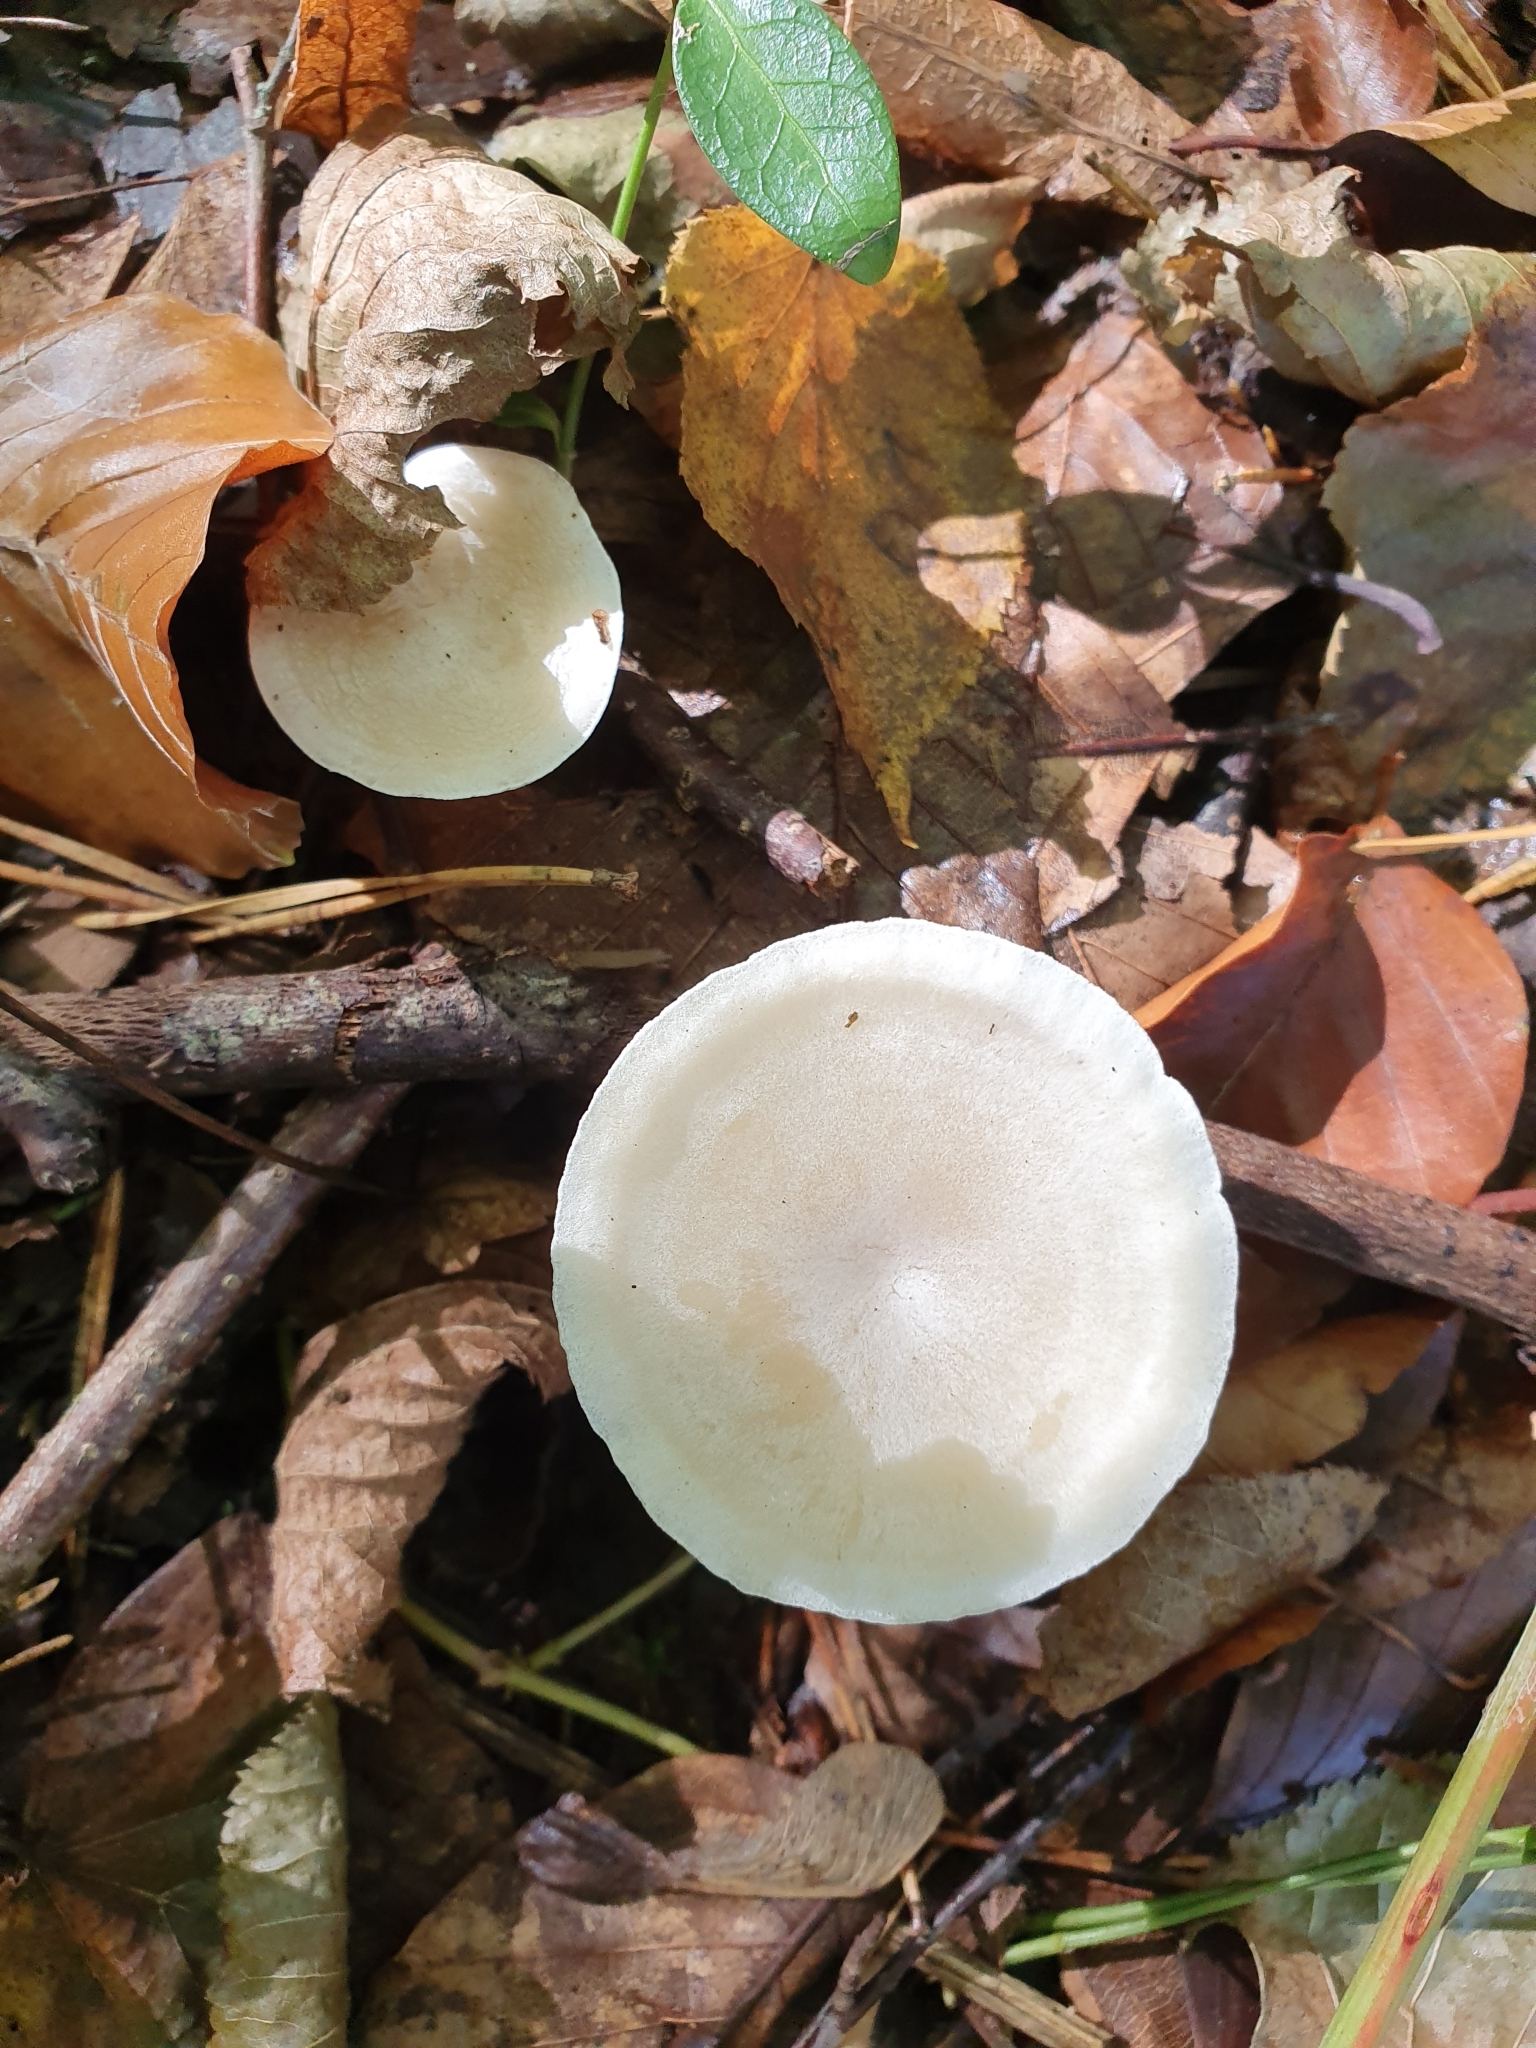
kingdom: Fungi
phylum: Basidiomycota
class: Agaricomycetes
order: Agaricales
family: Tricholomataceae
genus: Leucocybe
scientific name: Leucocybe candicans
